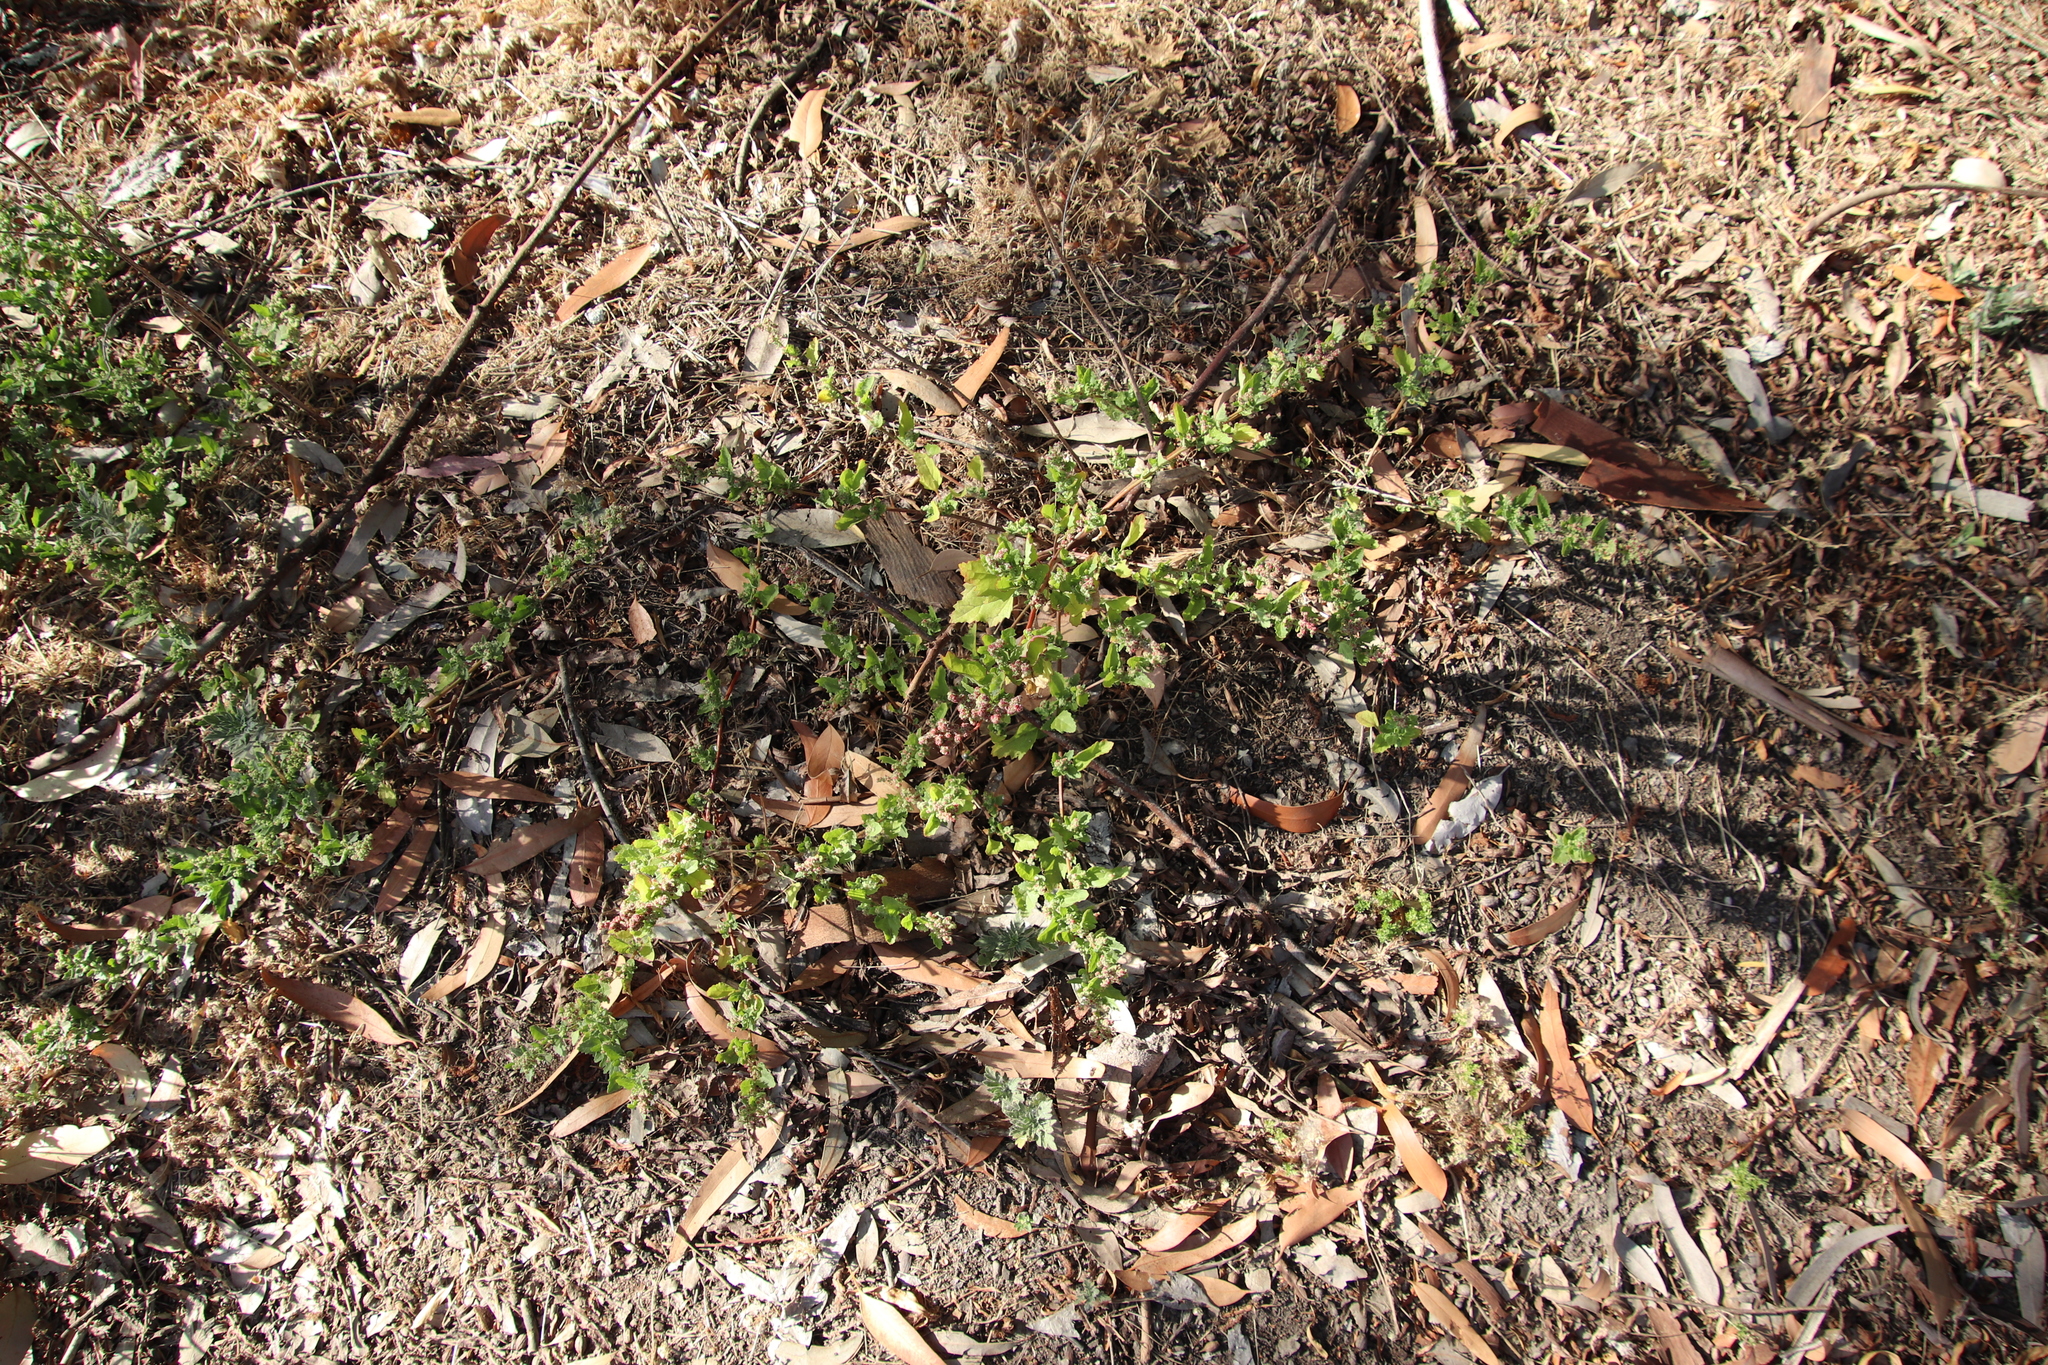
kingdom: Plantae
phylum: Tracheophyta
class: Magnoliopsida
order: Caryophyllales
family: Amaranthaceae
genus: Chenopodiastrum
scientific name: Chenopodiastrum murale
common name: Sowbane
